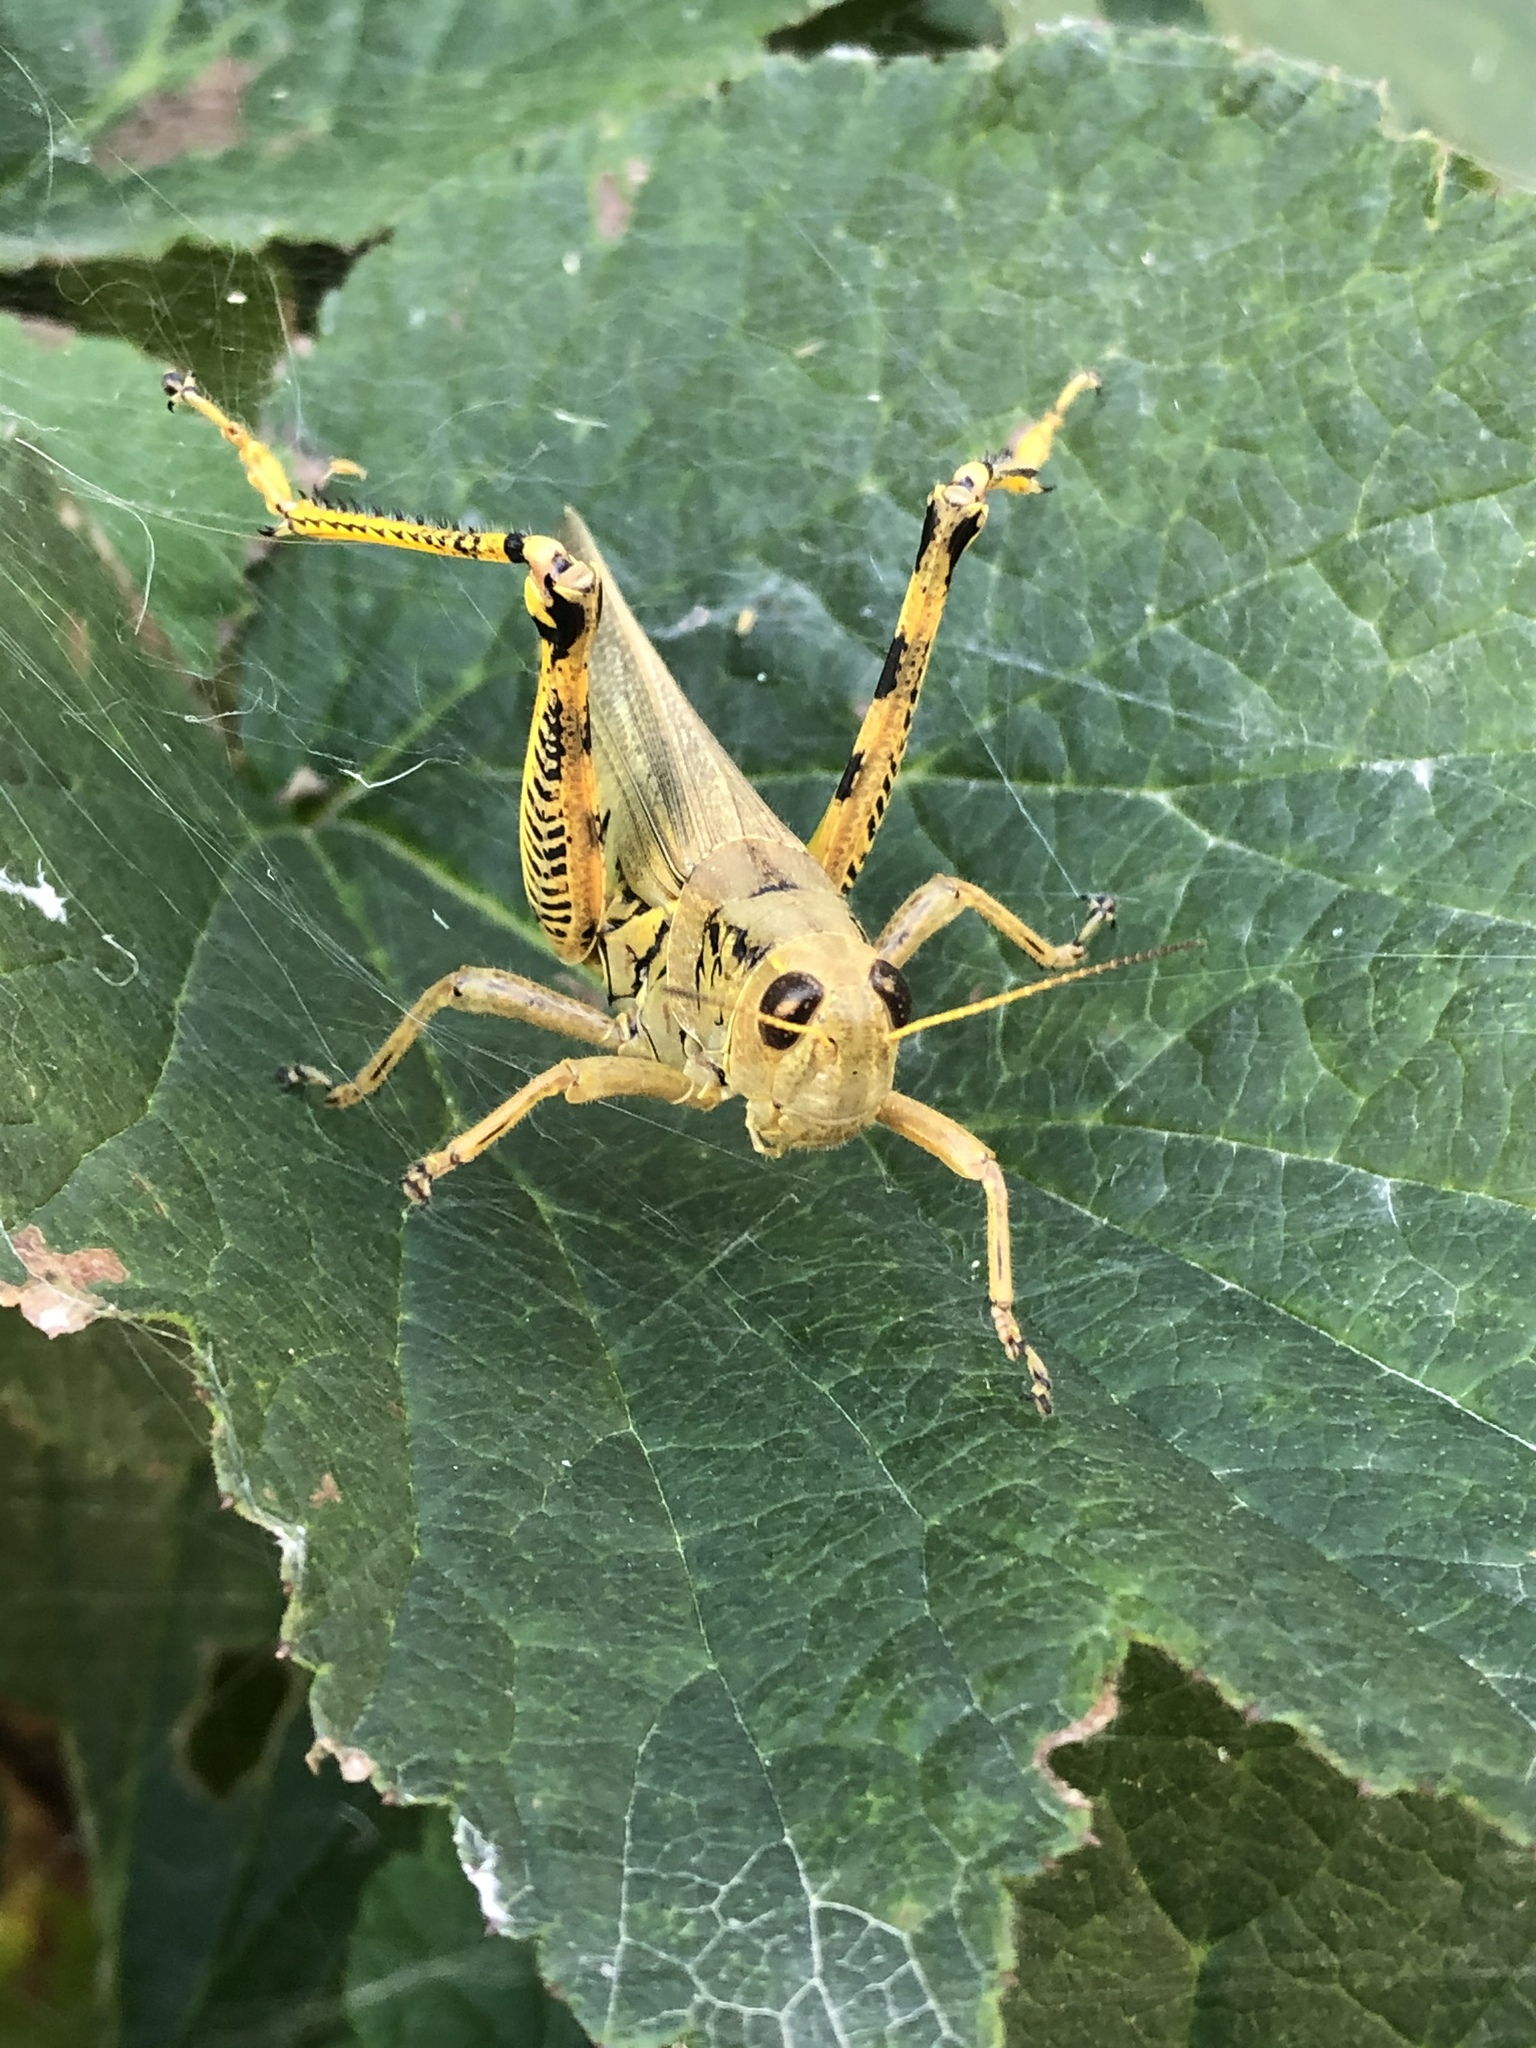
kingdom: Animalia
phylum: Arthropoda
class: Insecta
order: Orthoptera
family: Acrididae
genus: Melanoplus
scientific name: Melanoplus differentialis
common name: Differential grasshopper
